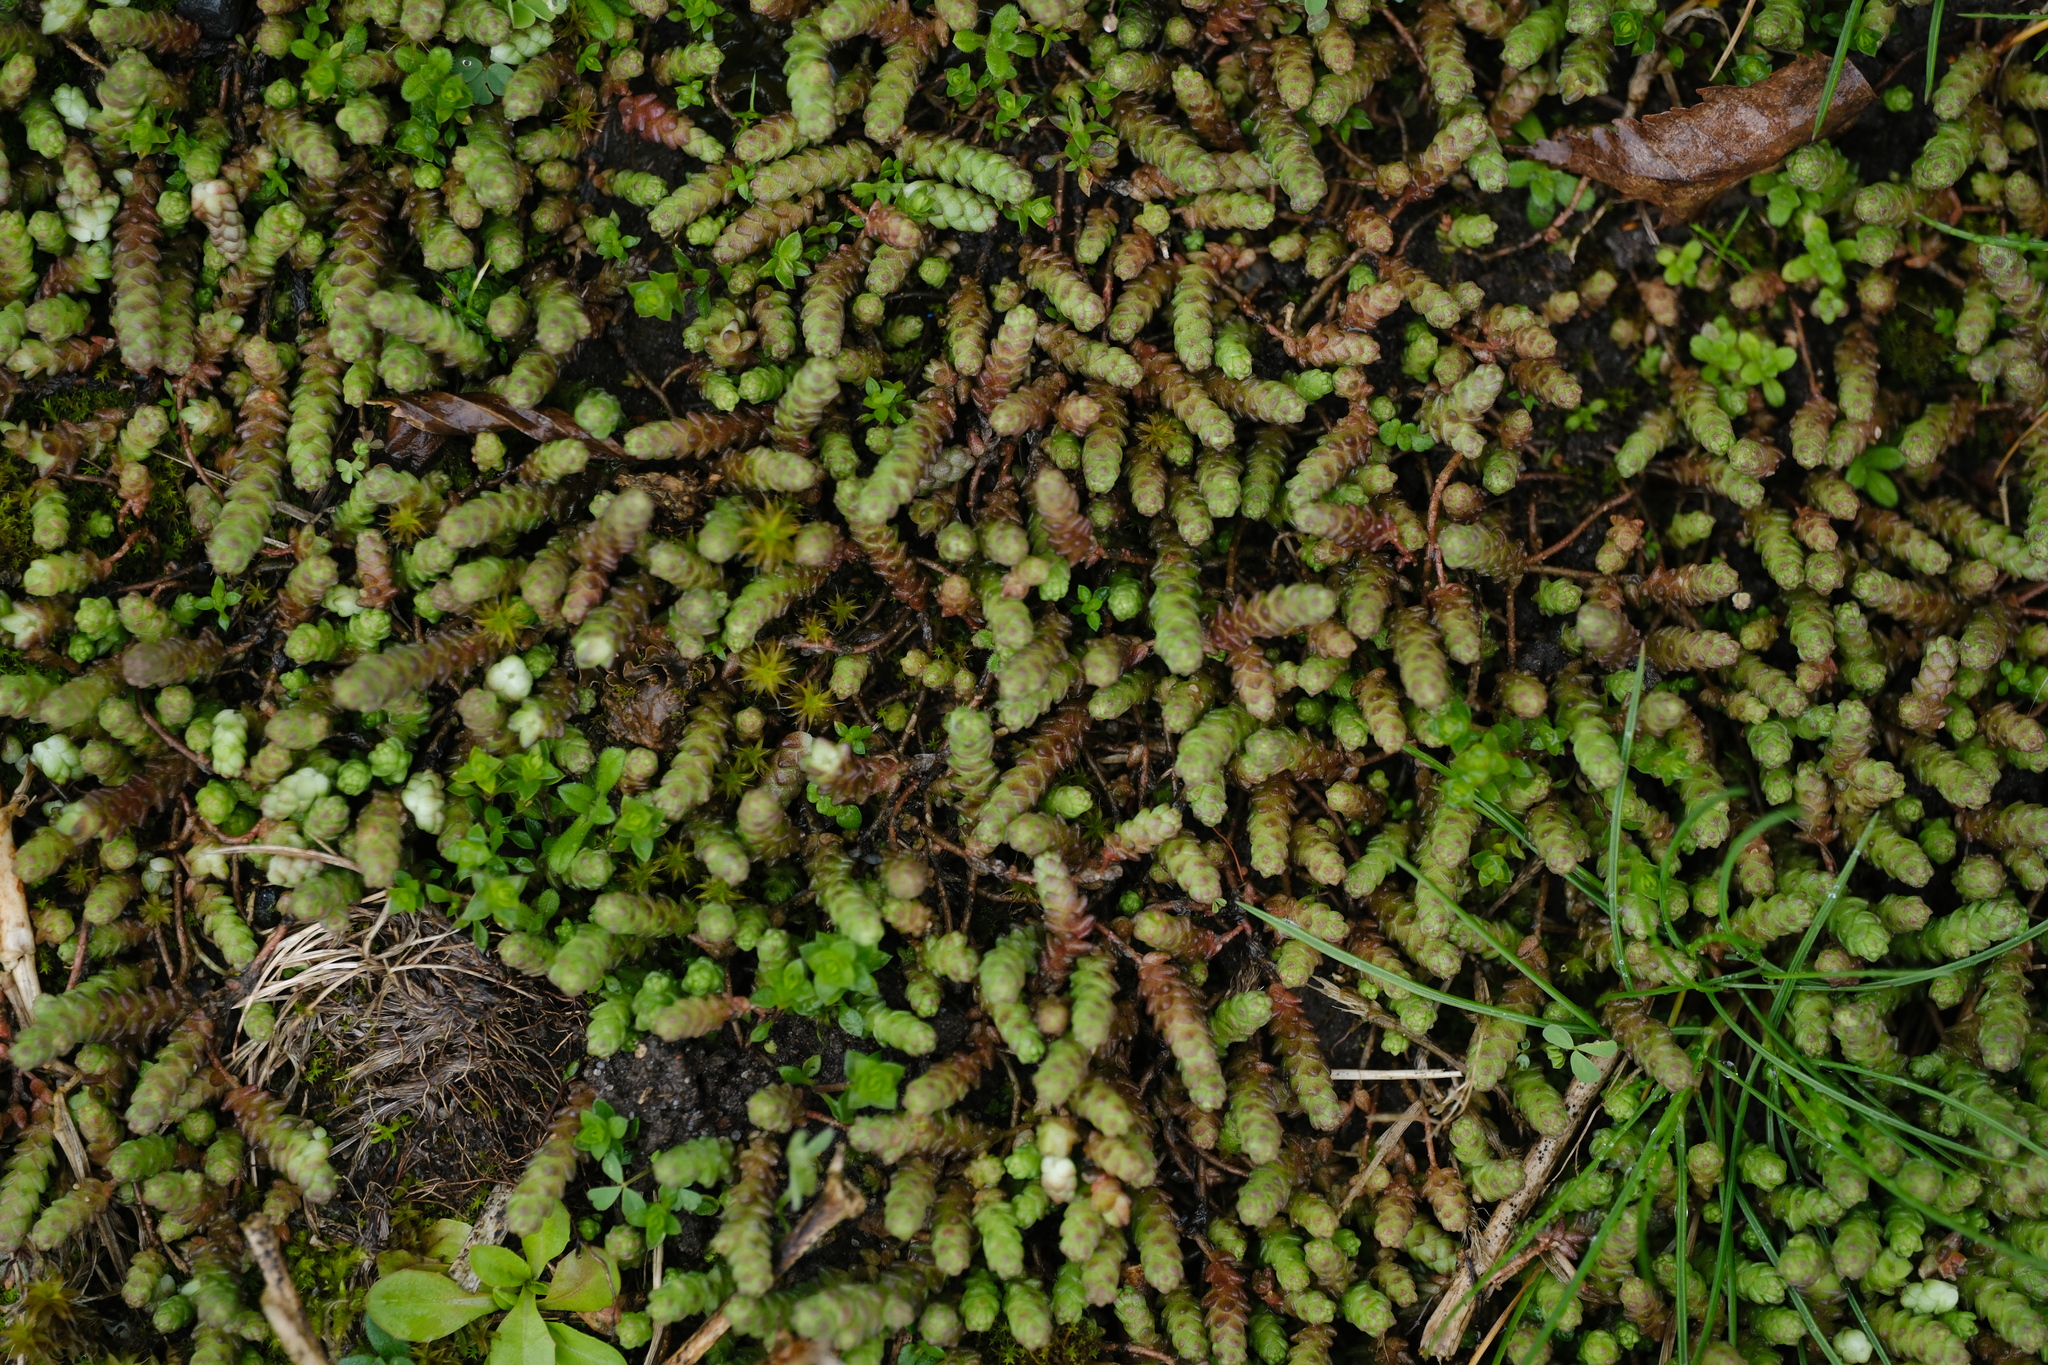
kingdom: Plantae
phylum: Tracheophyta
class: Magnoliopsida
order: Saxifragales
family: Crassulaceae
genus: Sedum
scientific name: Sedum acre
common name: Biting stonecrop
